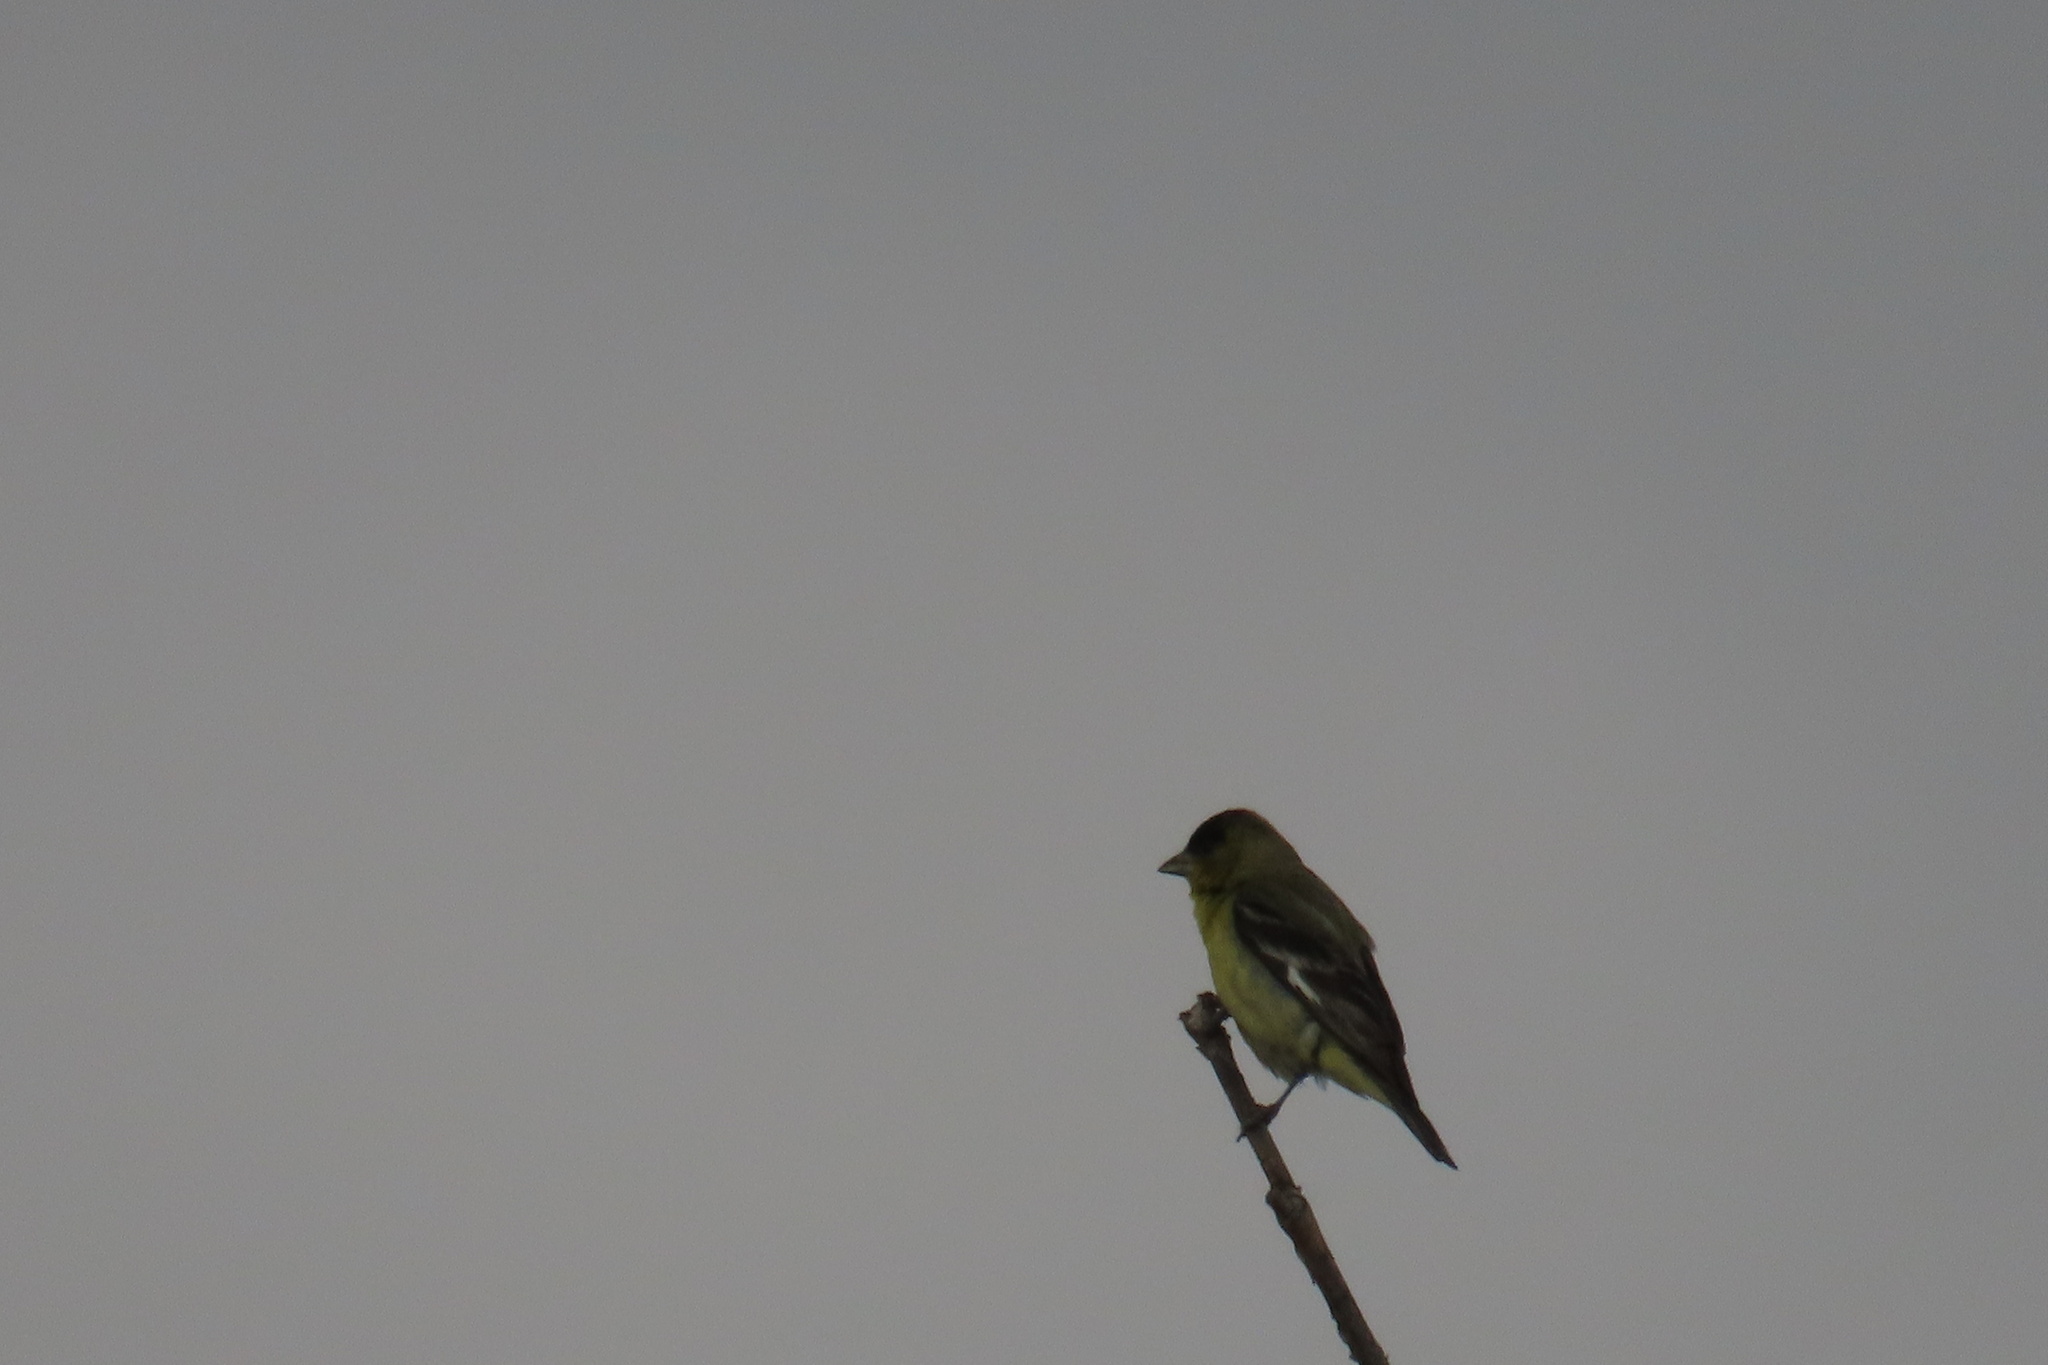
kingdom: Animalia
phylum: Chordata
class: Aves
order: Passeriformes
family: Fringillidae
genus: Spinus
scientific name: Spinus psaltria
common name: Lesser goldfinch
